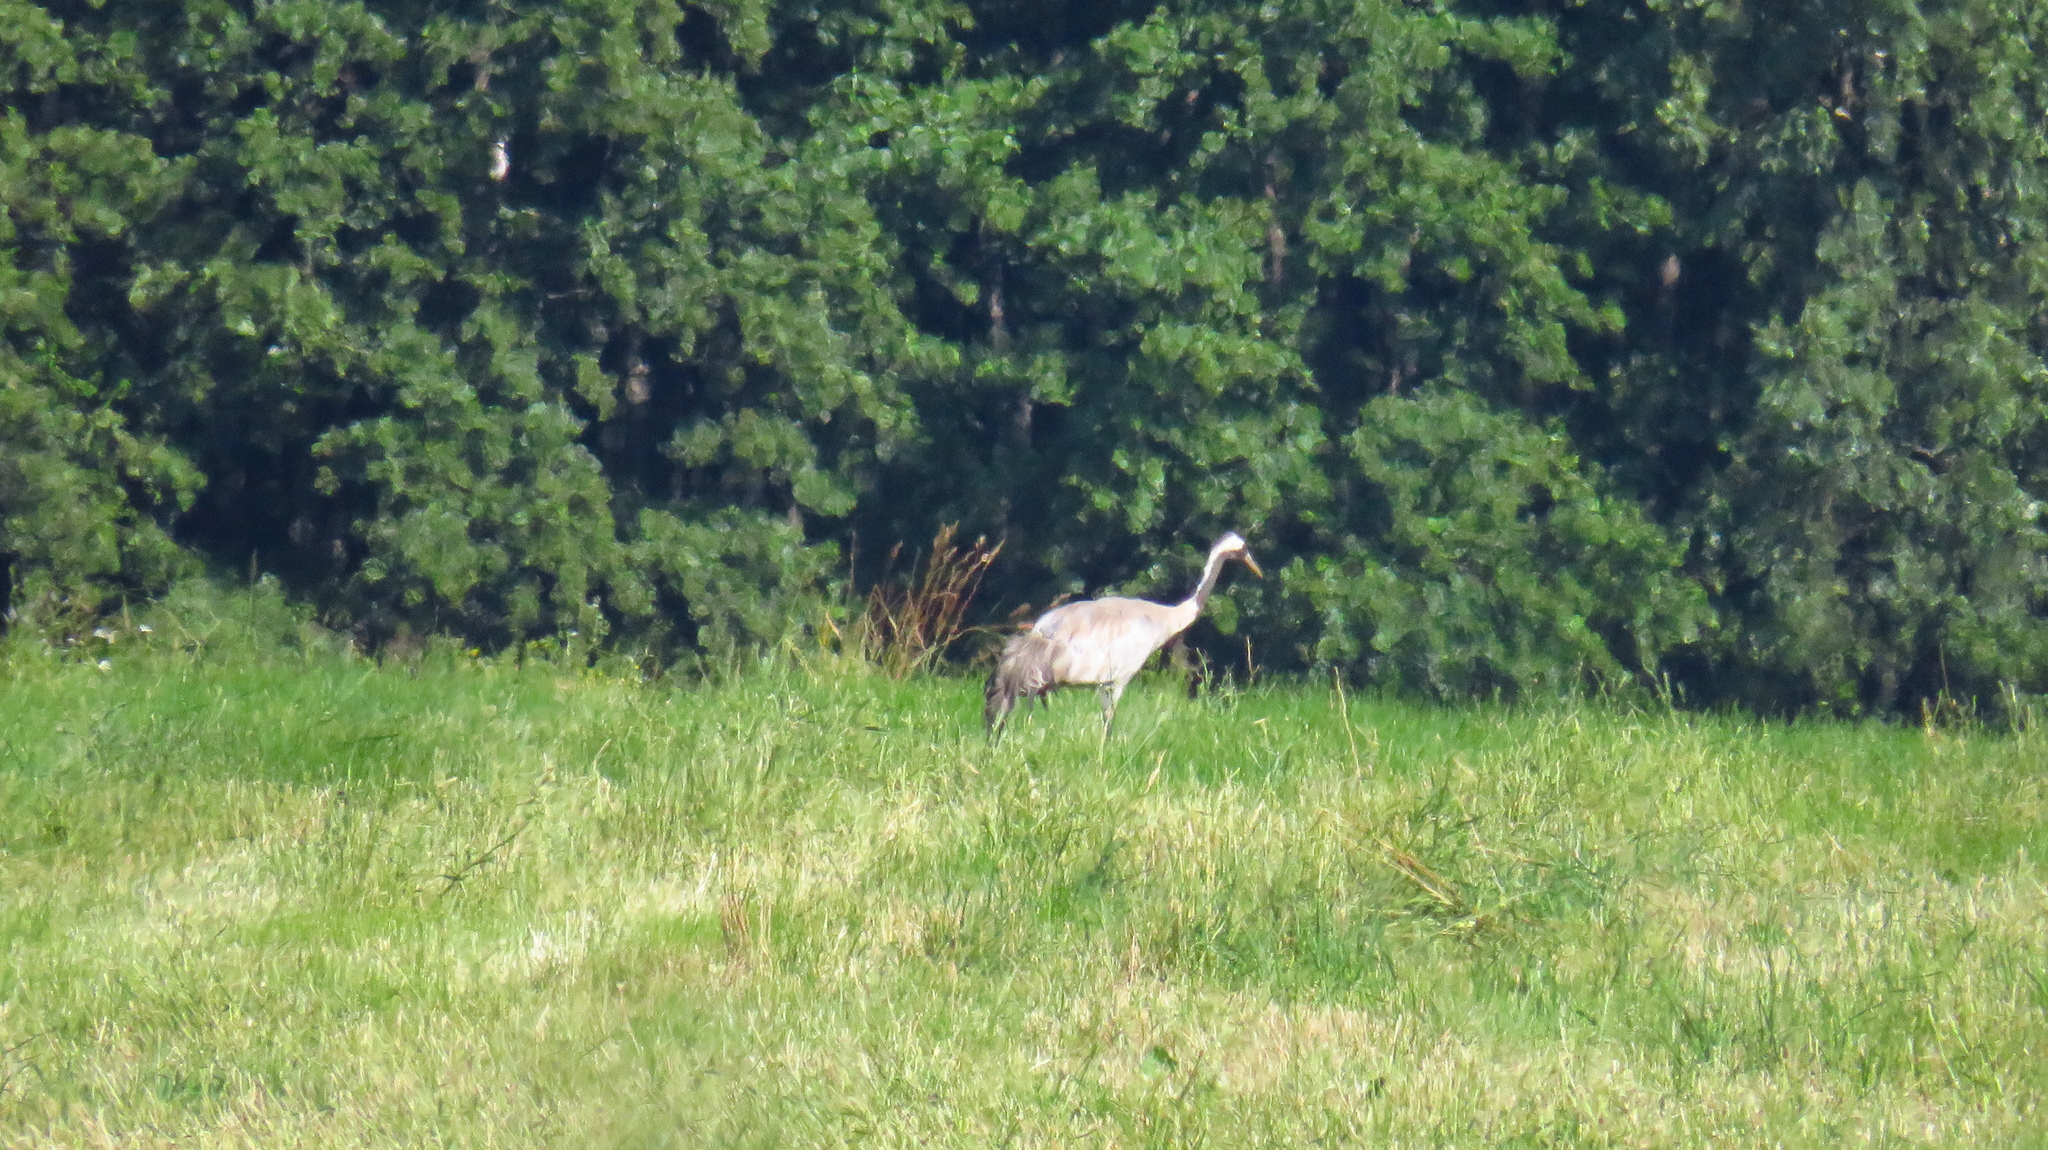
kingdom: Animalia
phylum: Chordata
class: Aves
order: Gruiformes
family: Gruidae
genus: Grus
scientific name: Grus grus
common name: Common crane
